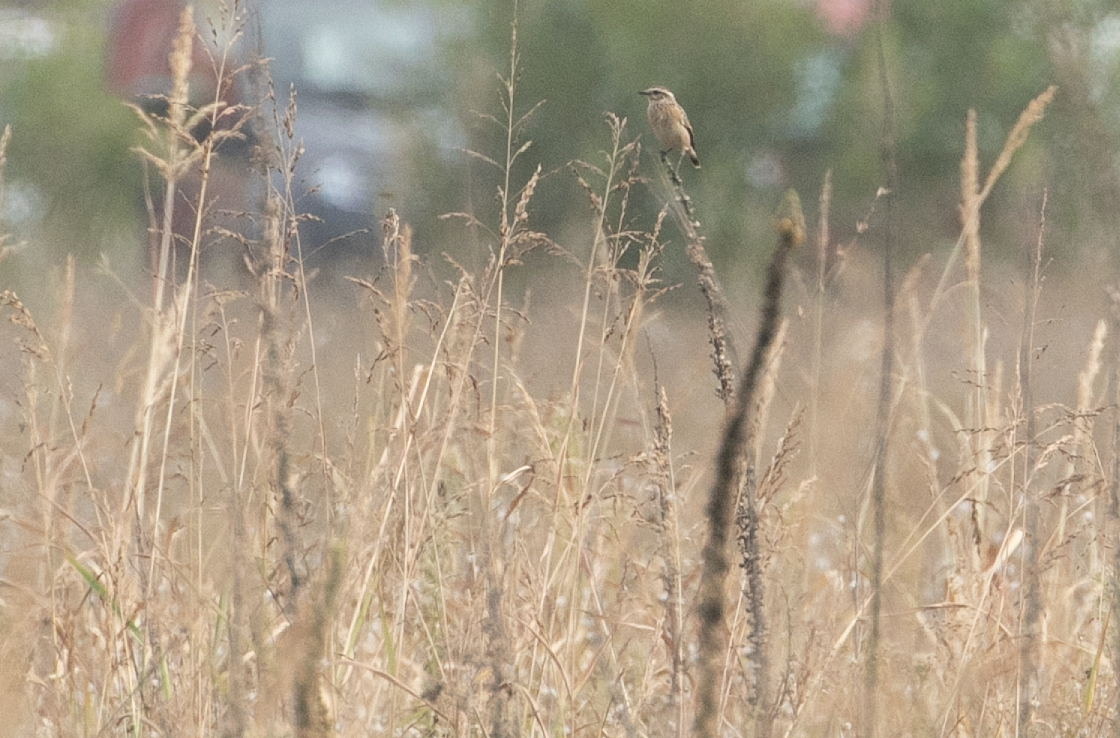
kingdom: Animalia
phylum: Chordata
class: Aves
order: Passeriformes
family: Muscicapidae
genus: Saxicola
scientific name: Saxicola rubetra
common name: Whinchat
